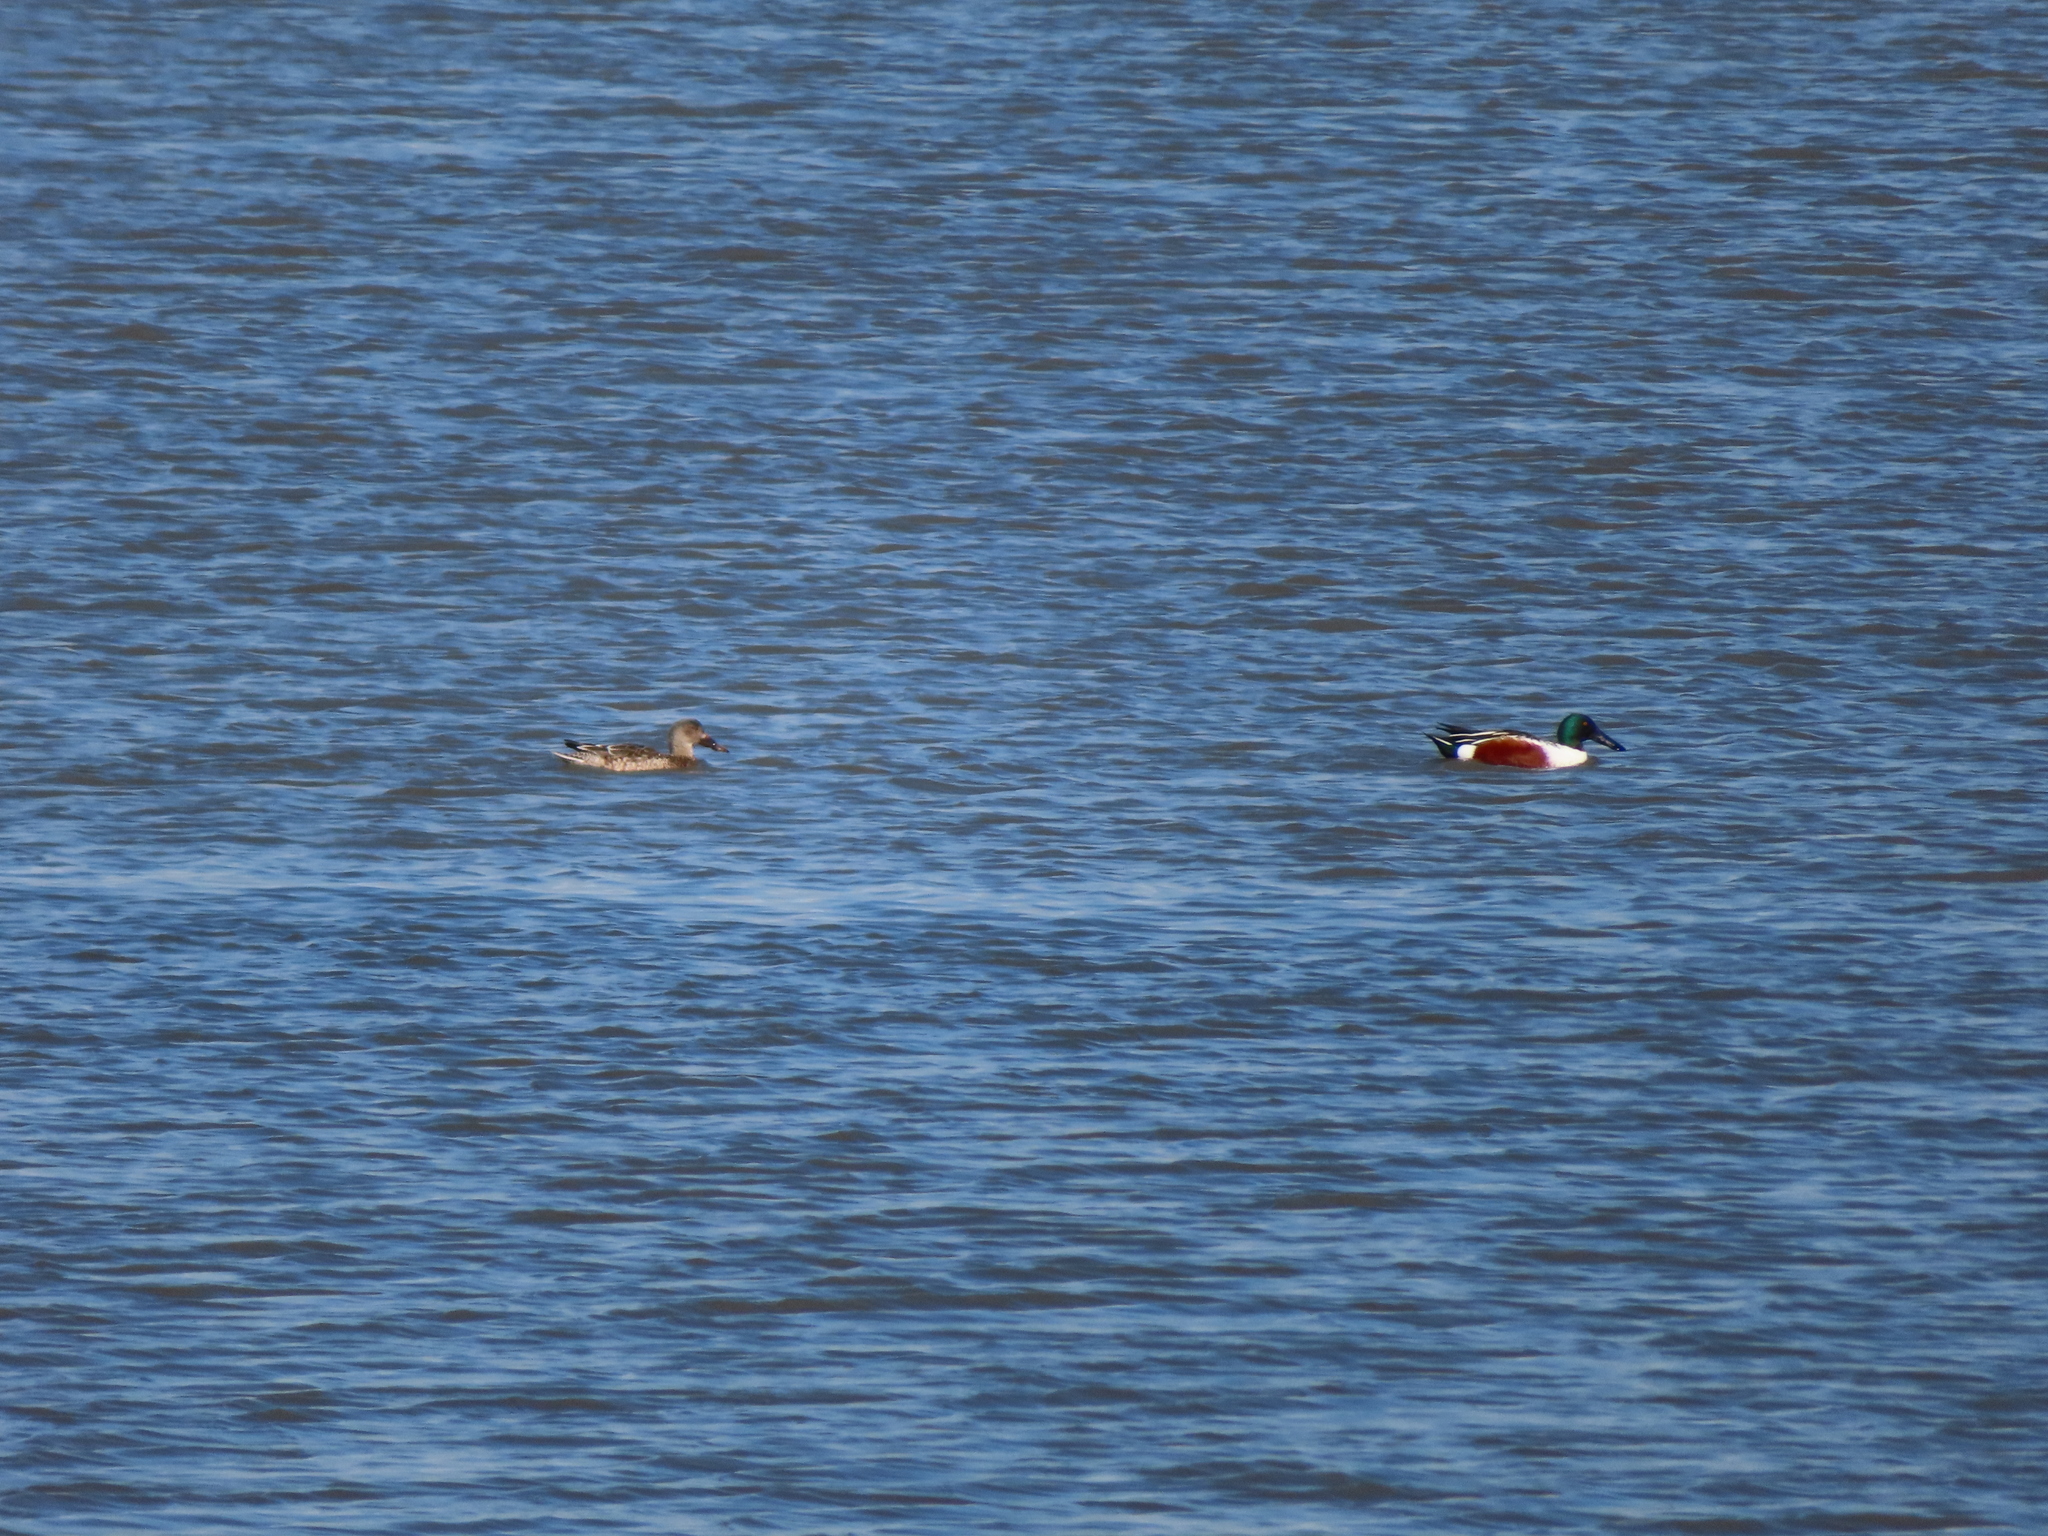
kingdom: Animalia
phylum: Chordata
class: Aves
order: Anseriformes
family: Anatidae
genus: Spatula
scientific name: Spatula clypeata
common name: Northern shoveler
